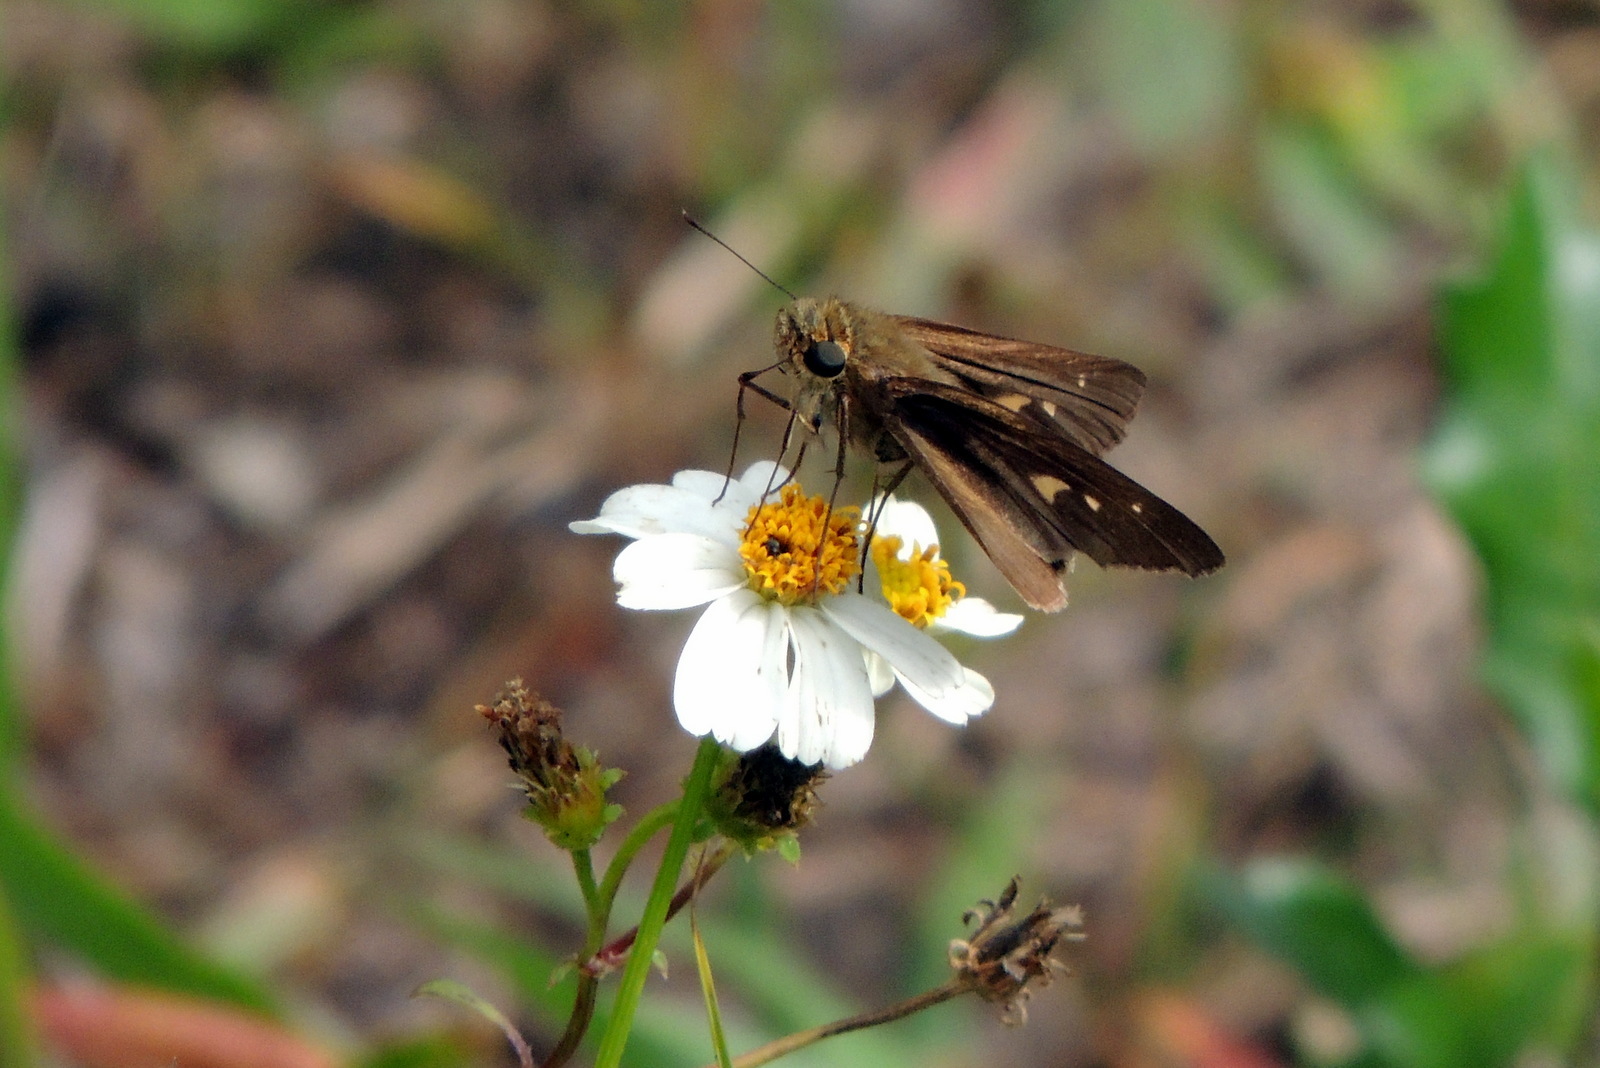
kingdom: Animalia
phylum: Arthropoda
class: Insecta
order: Lepidoptera
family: Hesperiidae
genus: Panoquina
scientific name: Panoquina ocola
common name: Ocola skipper
